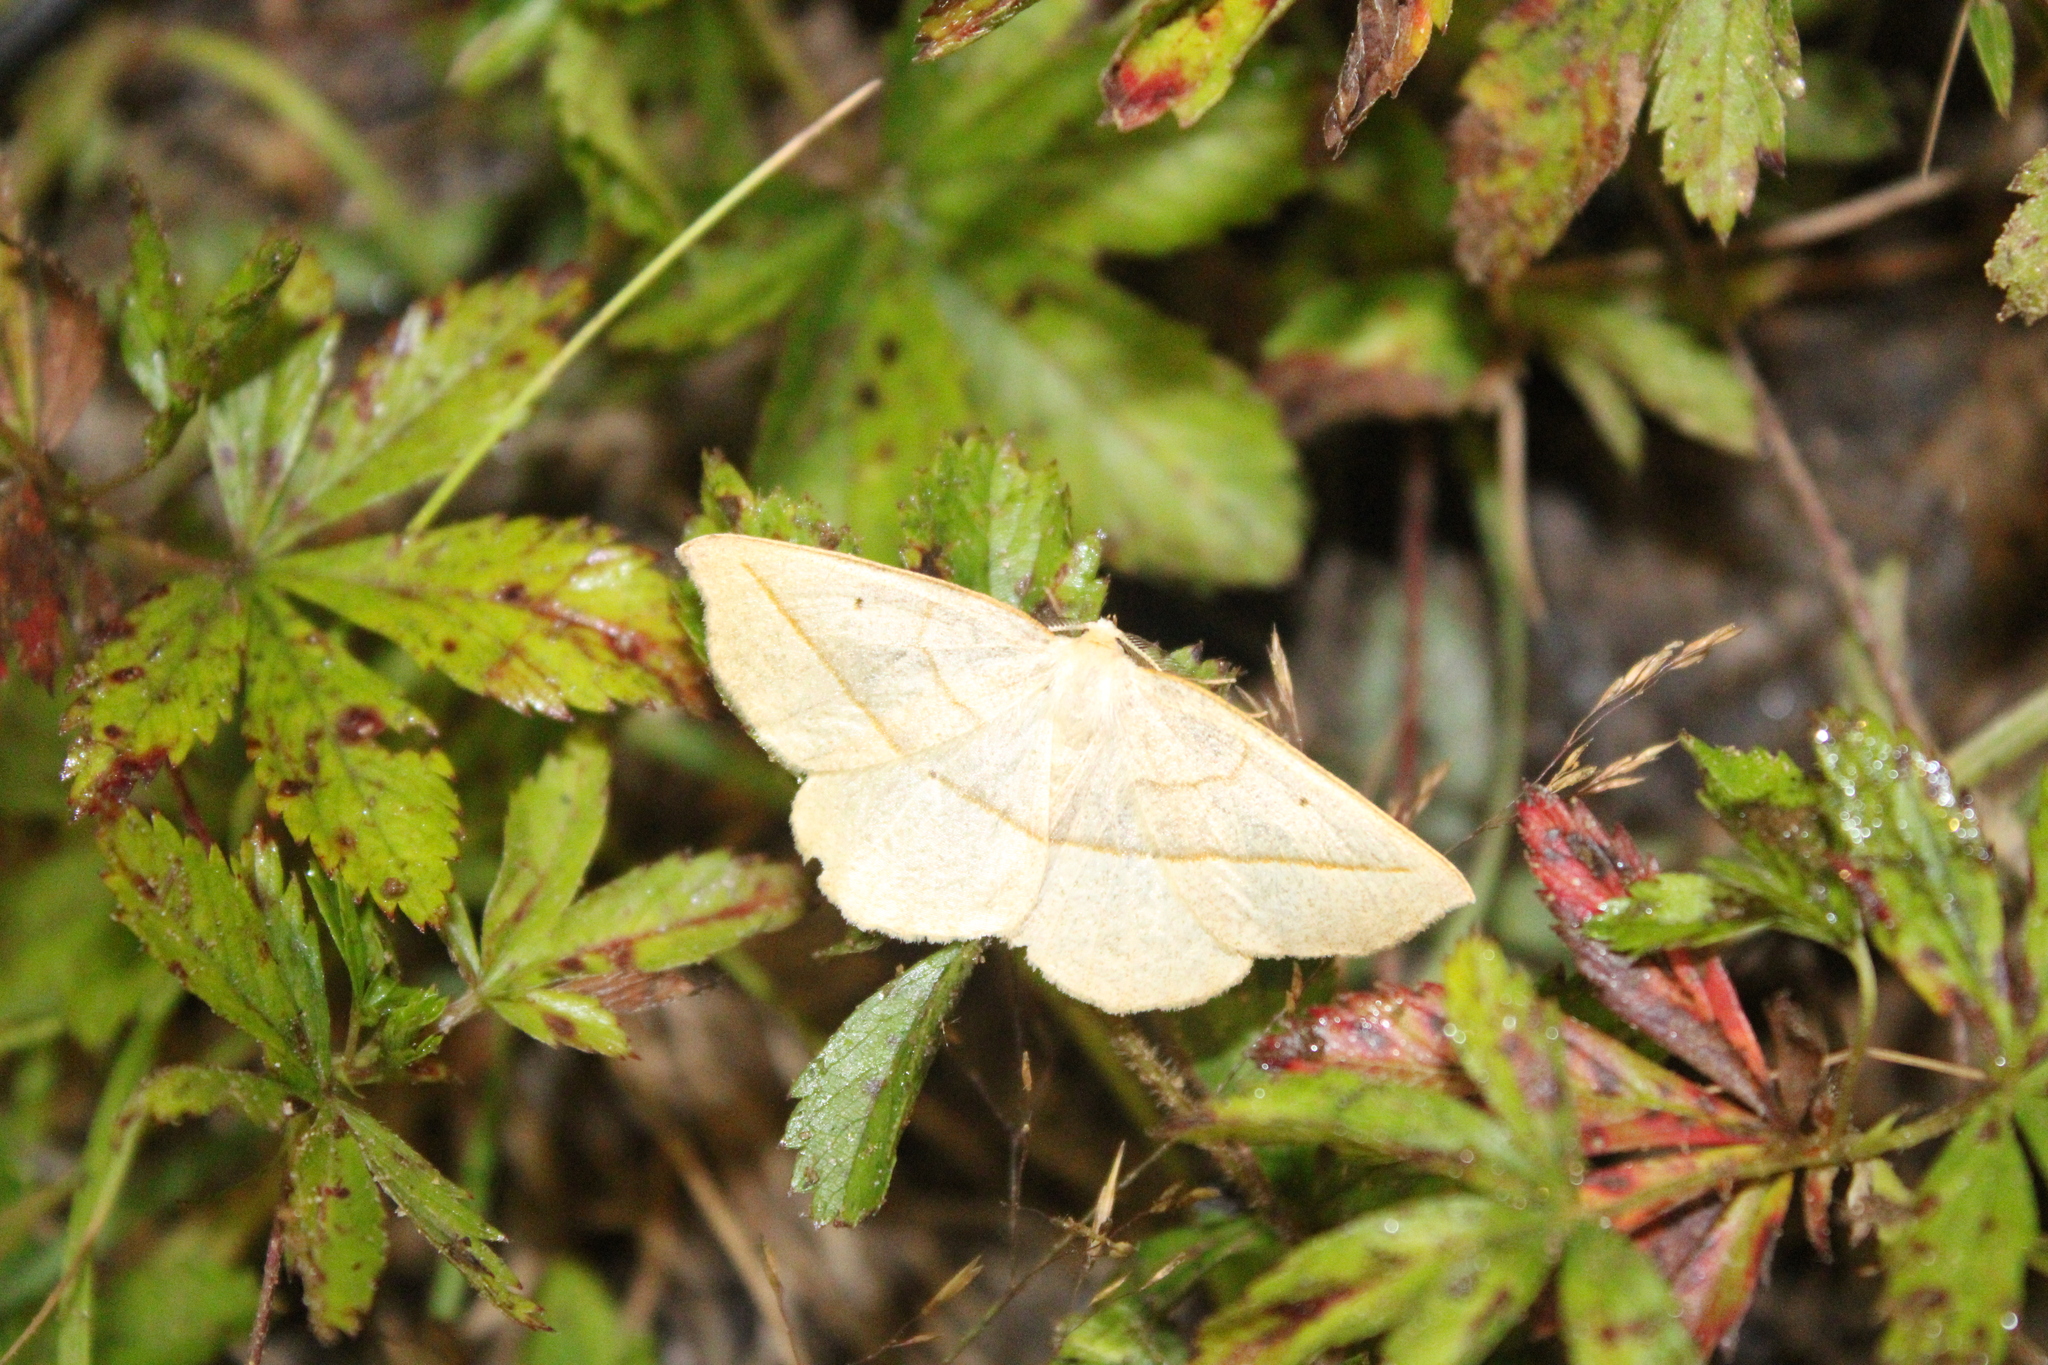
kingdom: Animalia
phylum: Arthropoda
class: Insecta
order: Lepidoptera
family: Geometridae
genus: Eusarca
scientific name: Eusarca confusaria
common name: Confused eusarca
